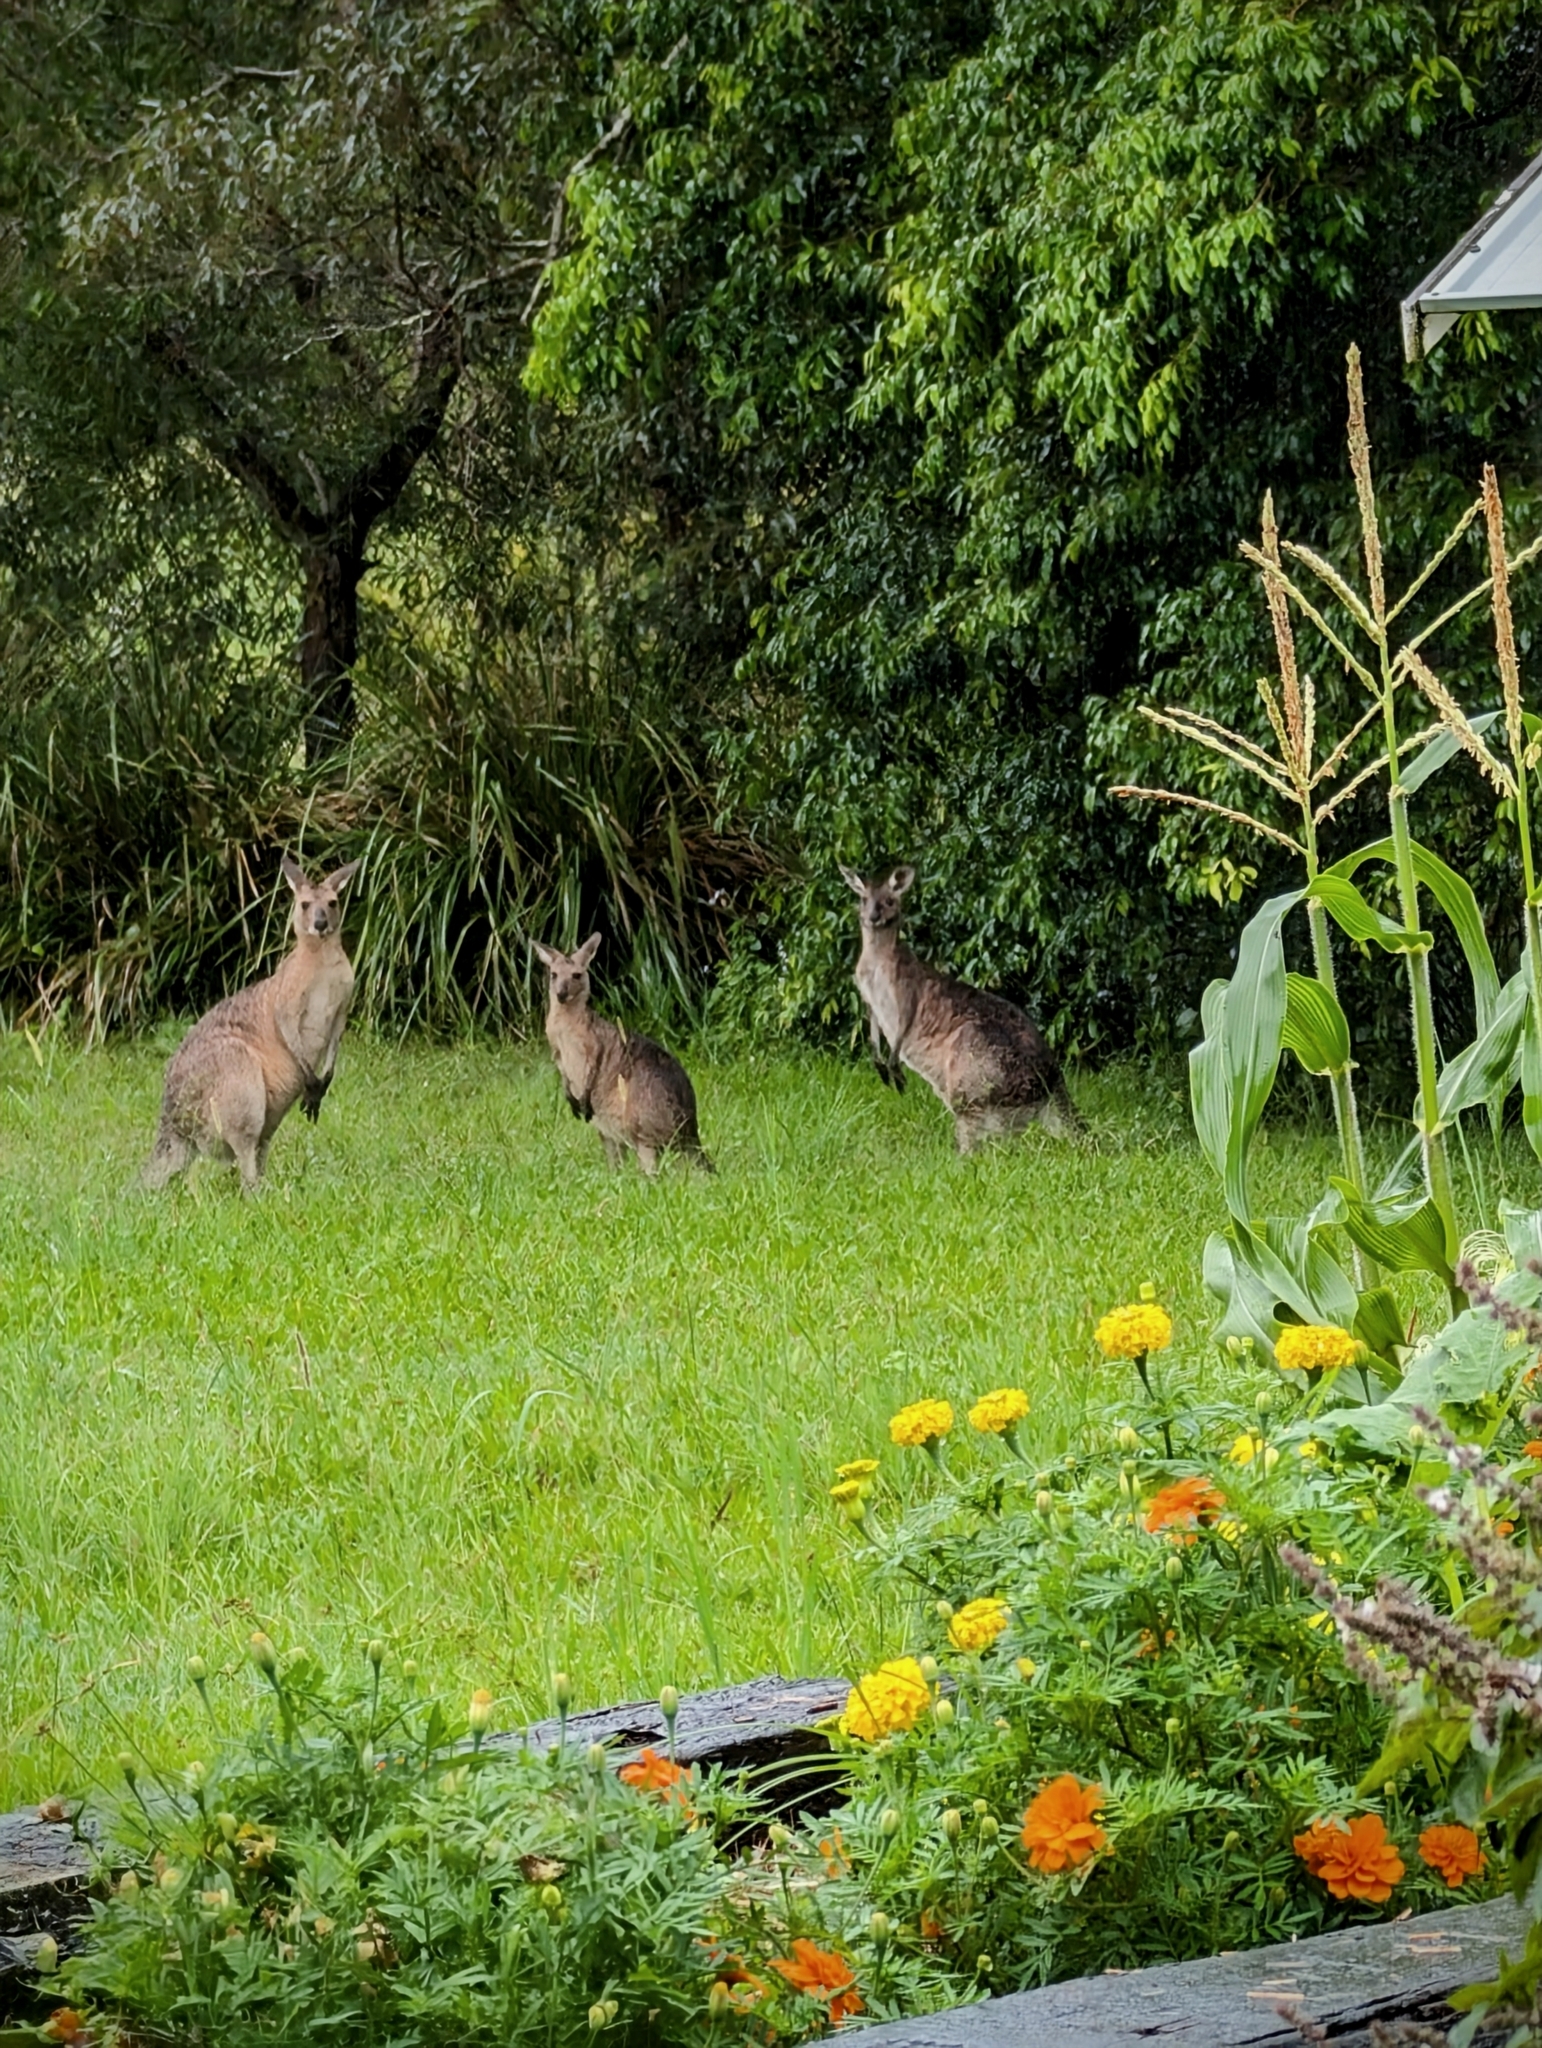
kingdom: Animalia
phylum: Chordata
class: Mammalia
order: Diprotodontia
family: Macropodidae
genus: Macropus
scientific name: Macropus giganteus
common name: Eastern grey kangaroo
